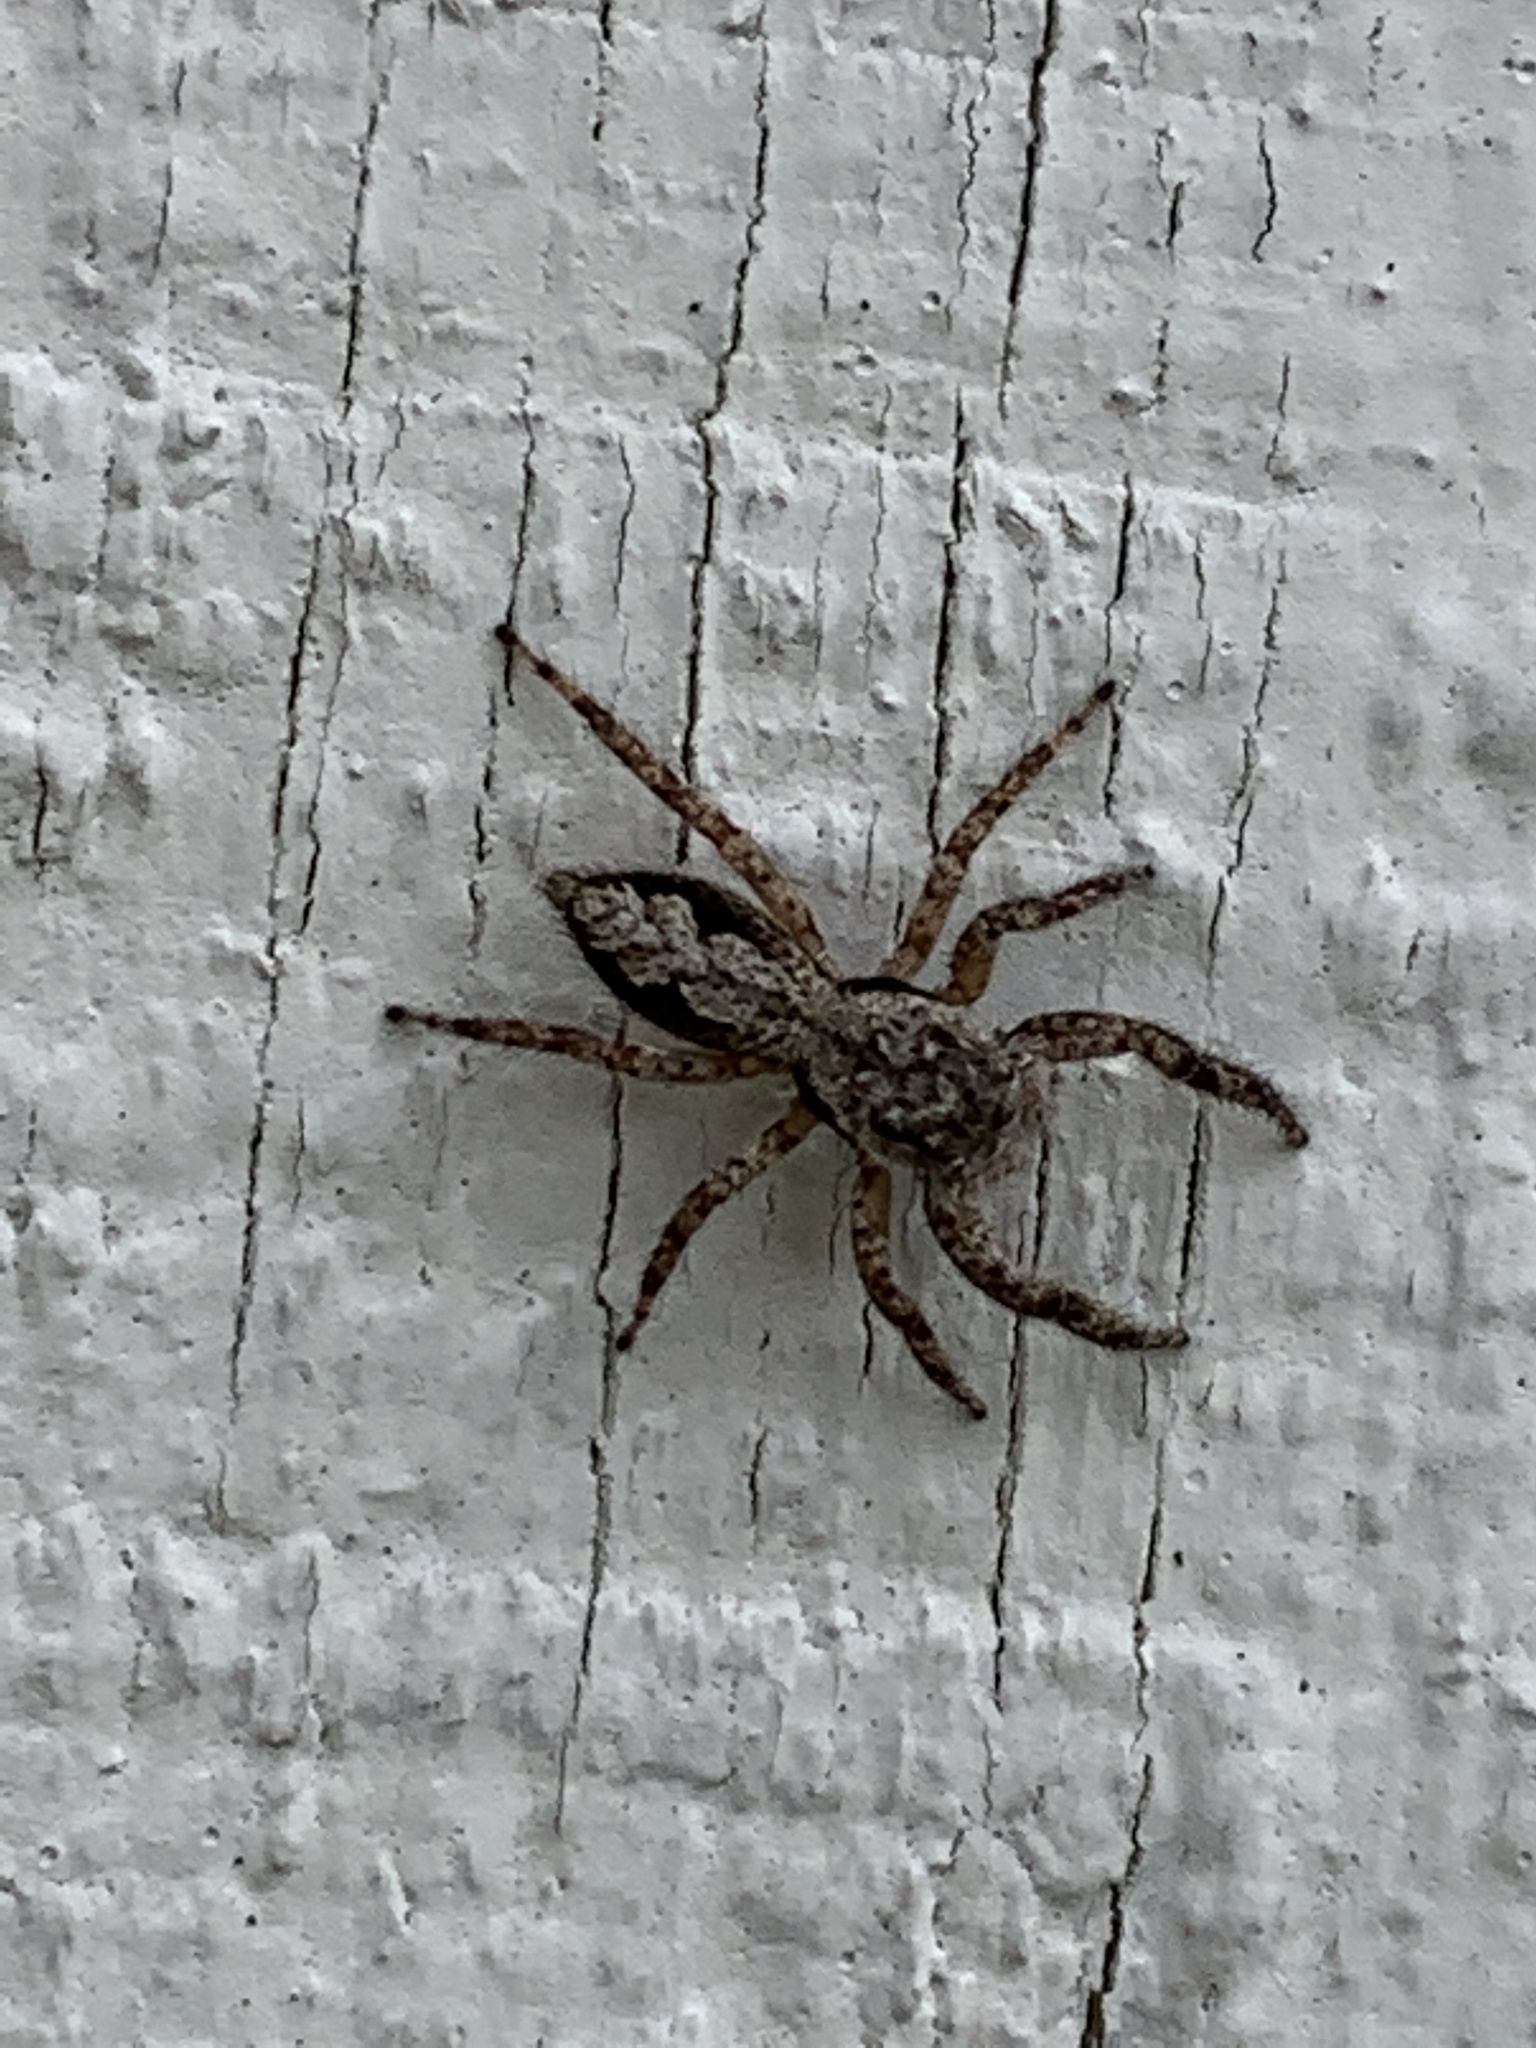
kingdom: Animalia
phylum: Arthropoda
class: Arachnida
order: Araneae
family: Salticidae
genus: Platycryptus
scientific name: Platycryptus undatus
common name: Tan jumping spider
